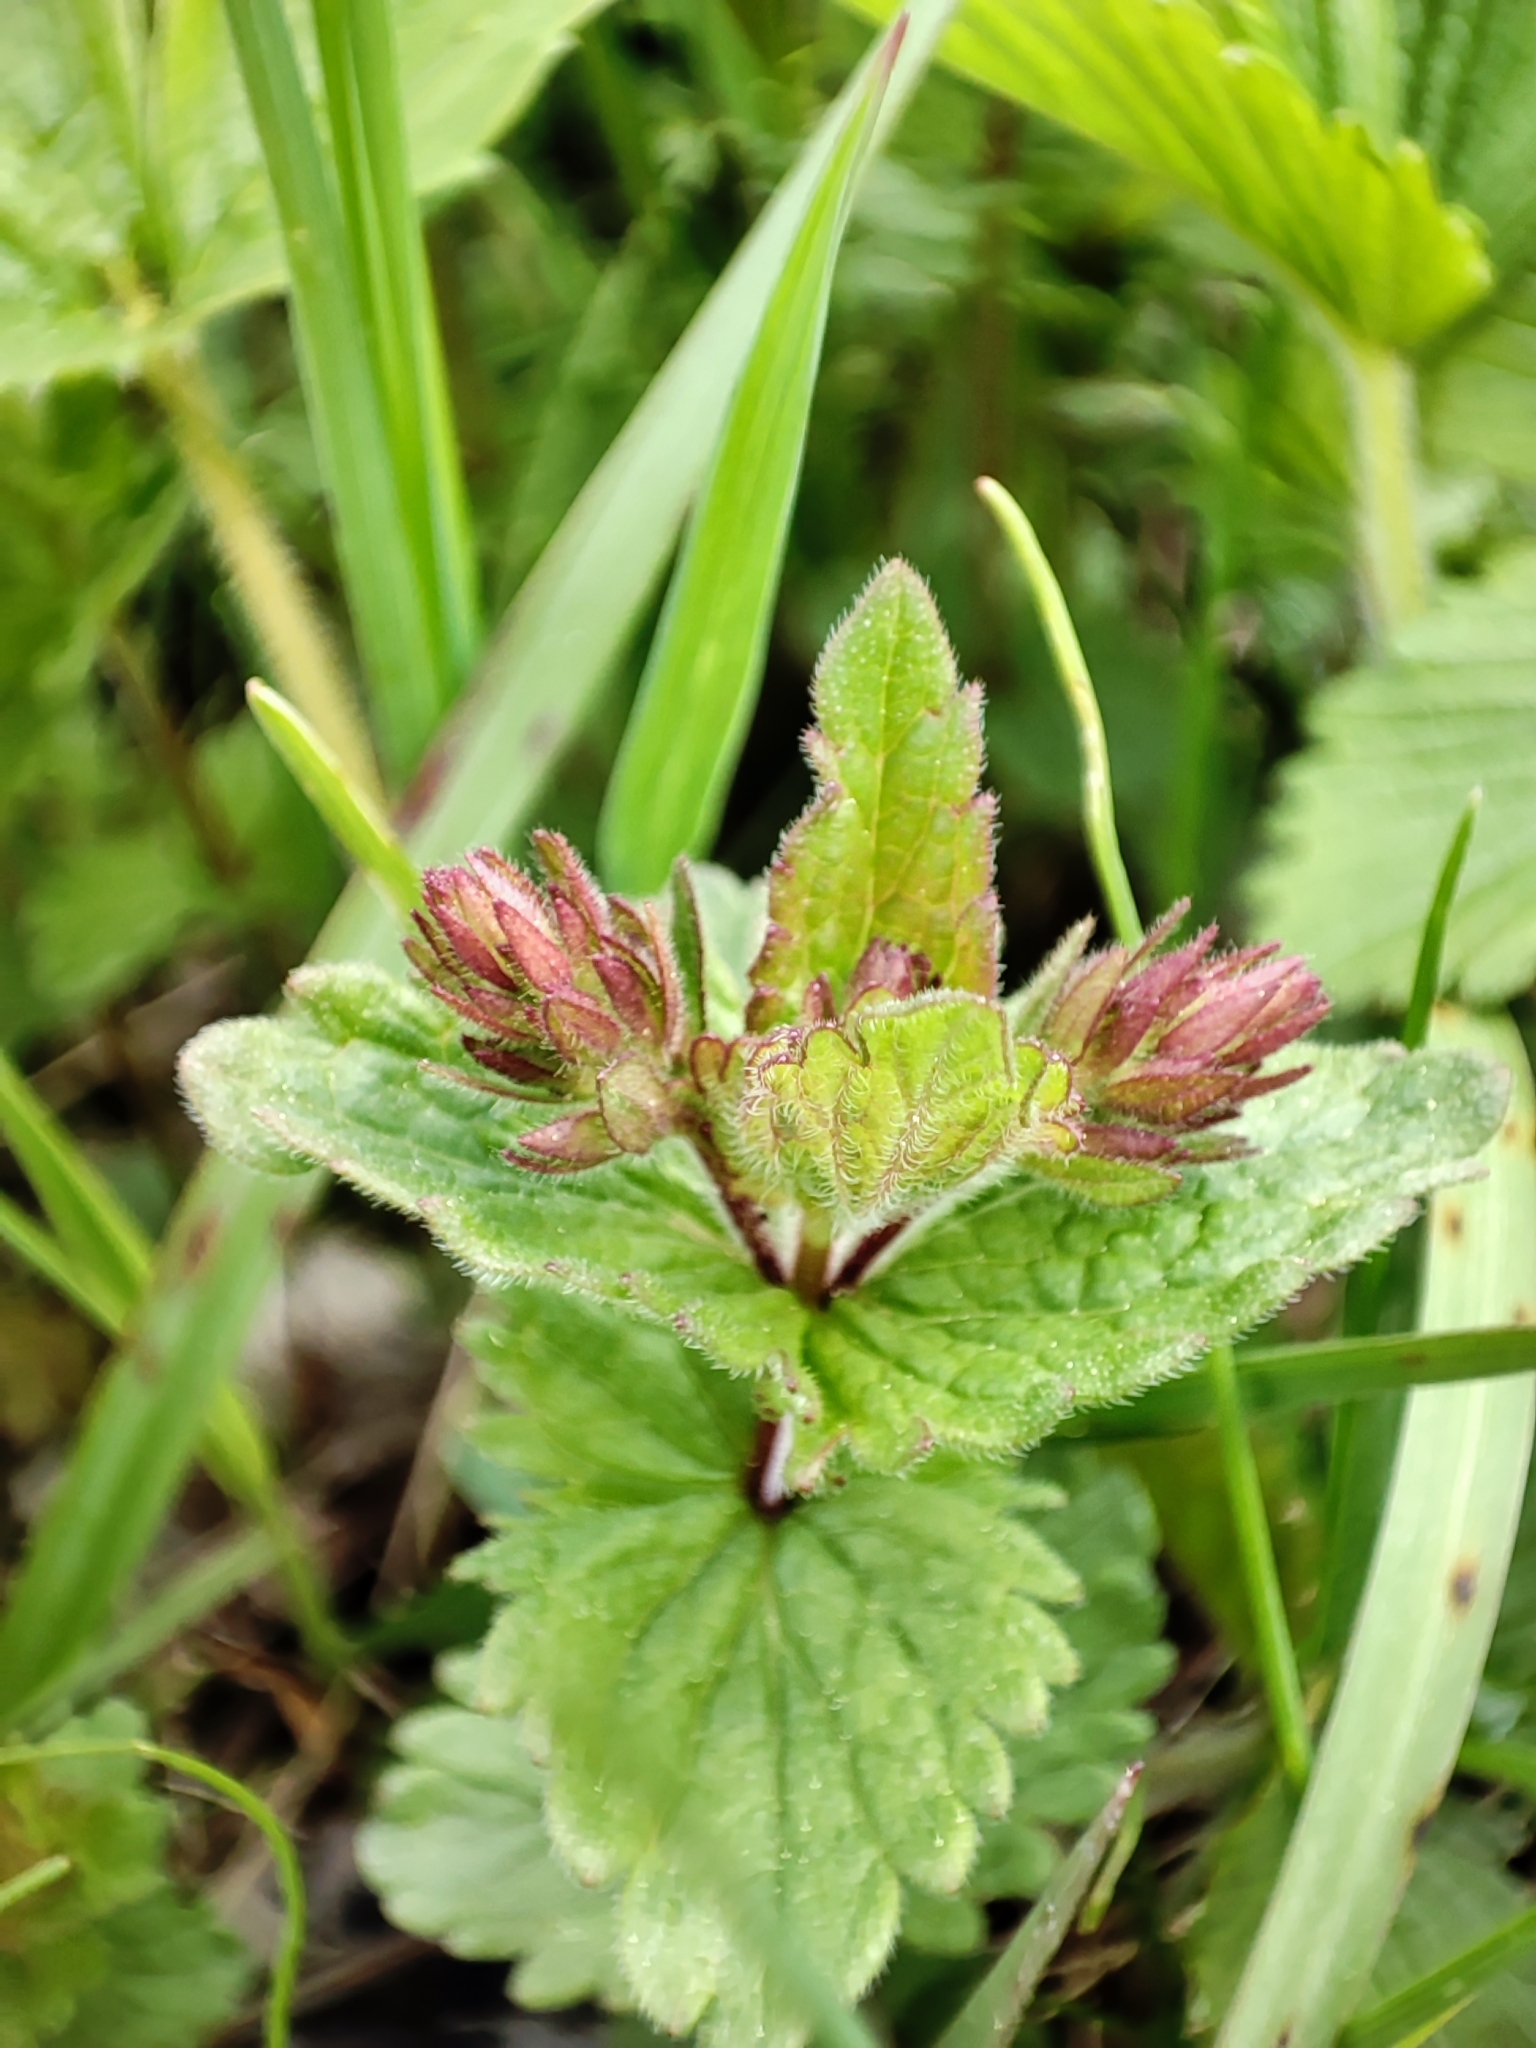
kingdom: Plantae
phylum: Tracheophyta
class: Magnoliopsida
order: Lamiales
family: Plantaginaceae
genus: Veronica
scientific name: Veronica chamaedrys
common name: Germander speedwell
